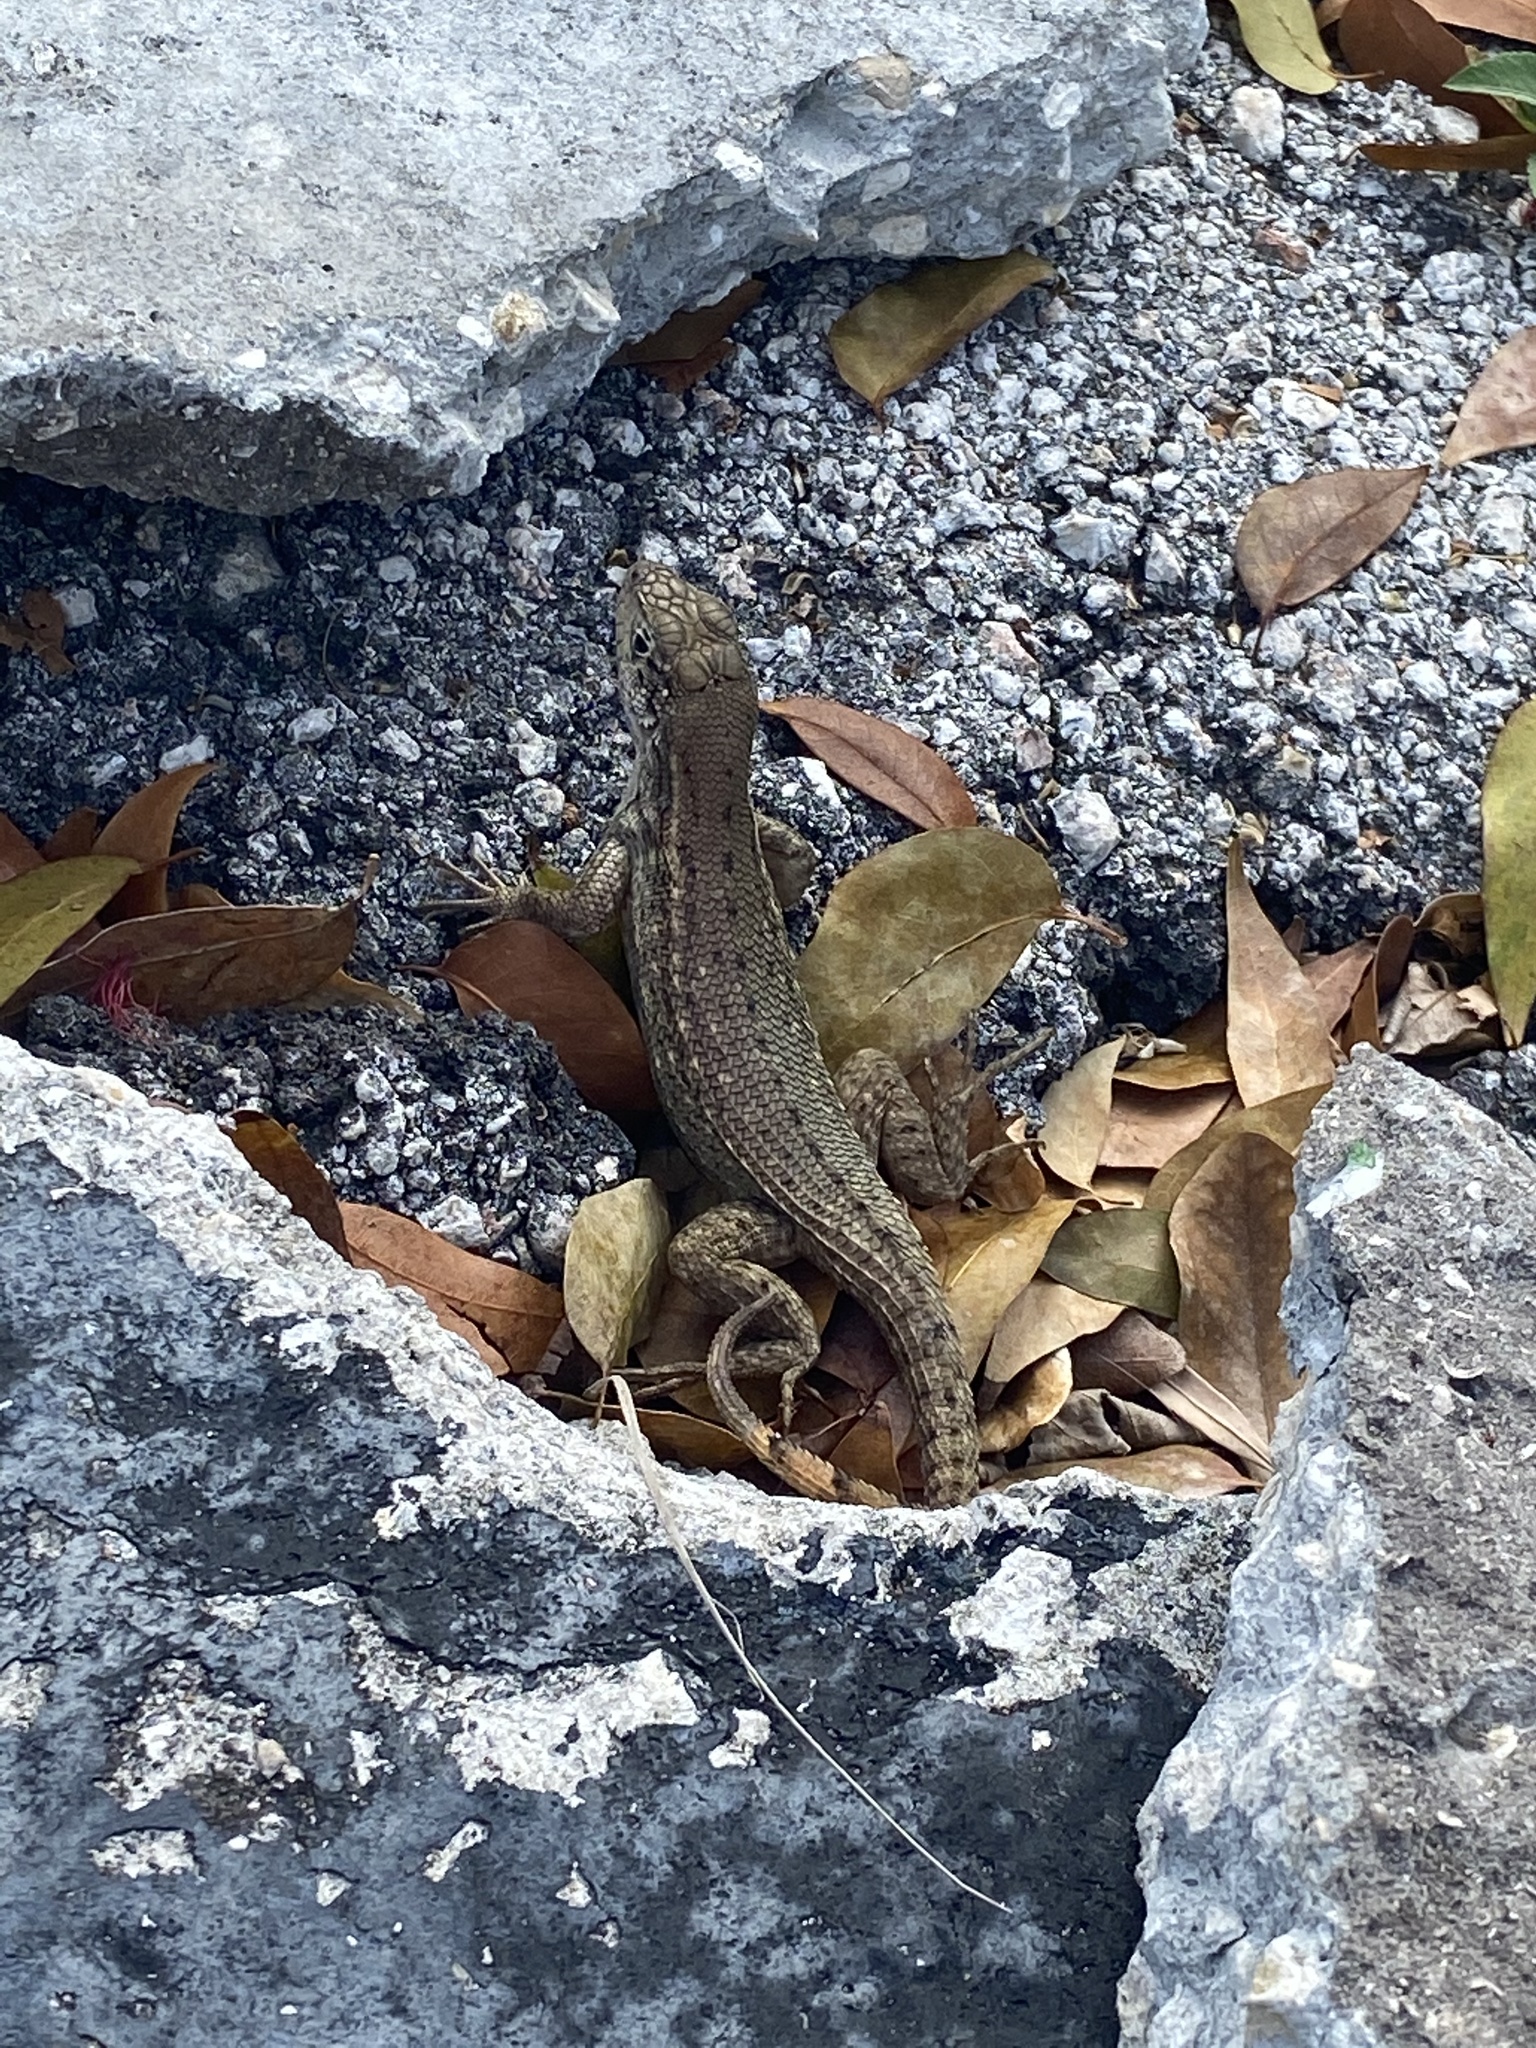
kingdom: Animalia
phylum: Chordata
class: Squamata
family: Leiocephalidae
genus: Leiocephalus
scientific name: Leiocephalus carinatus
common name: Northern curly-tailed lizard
